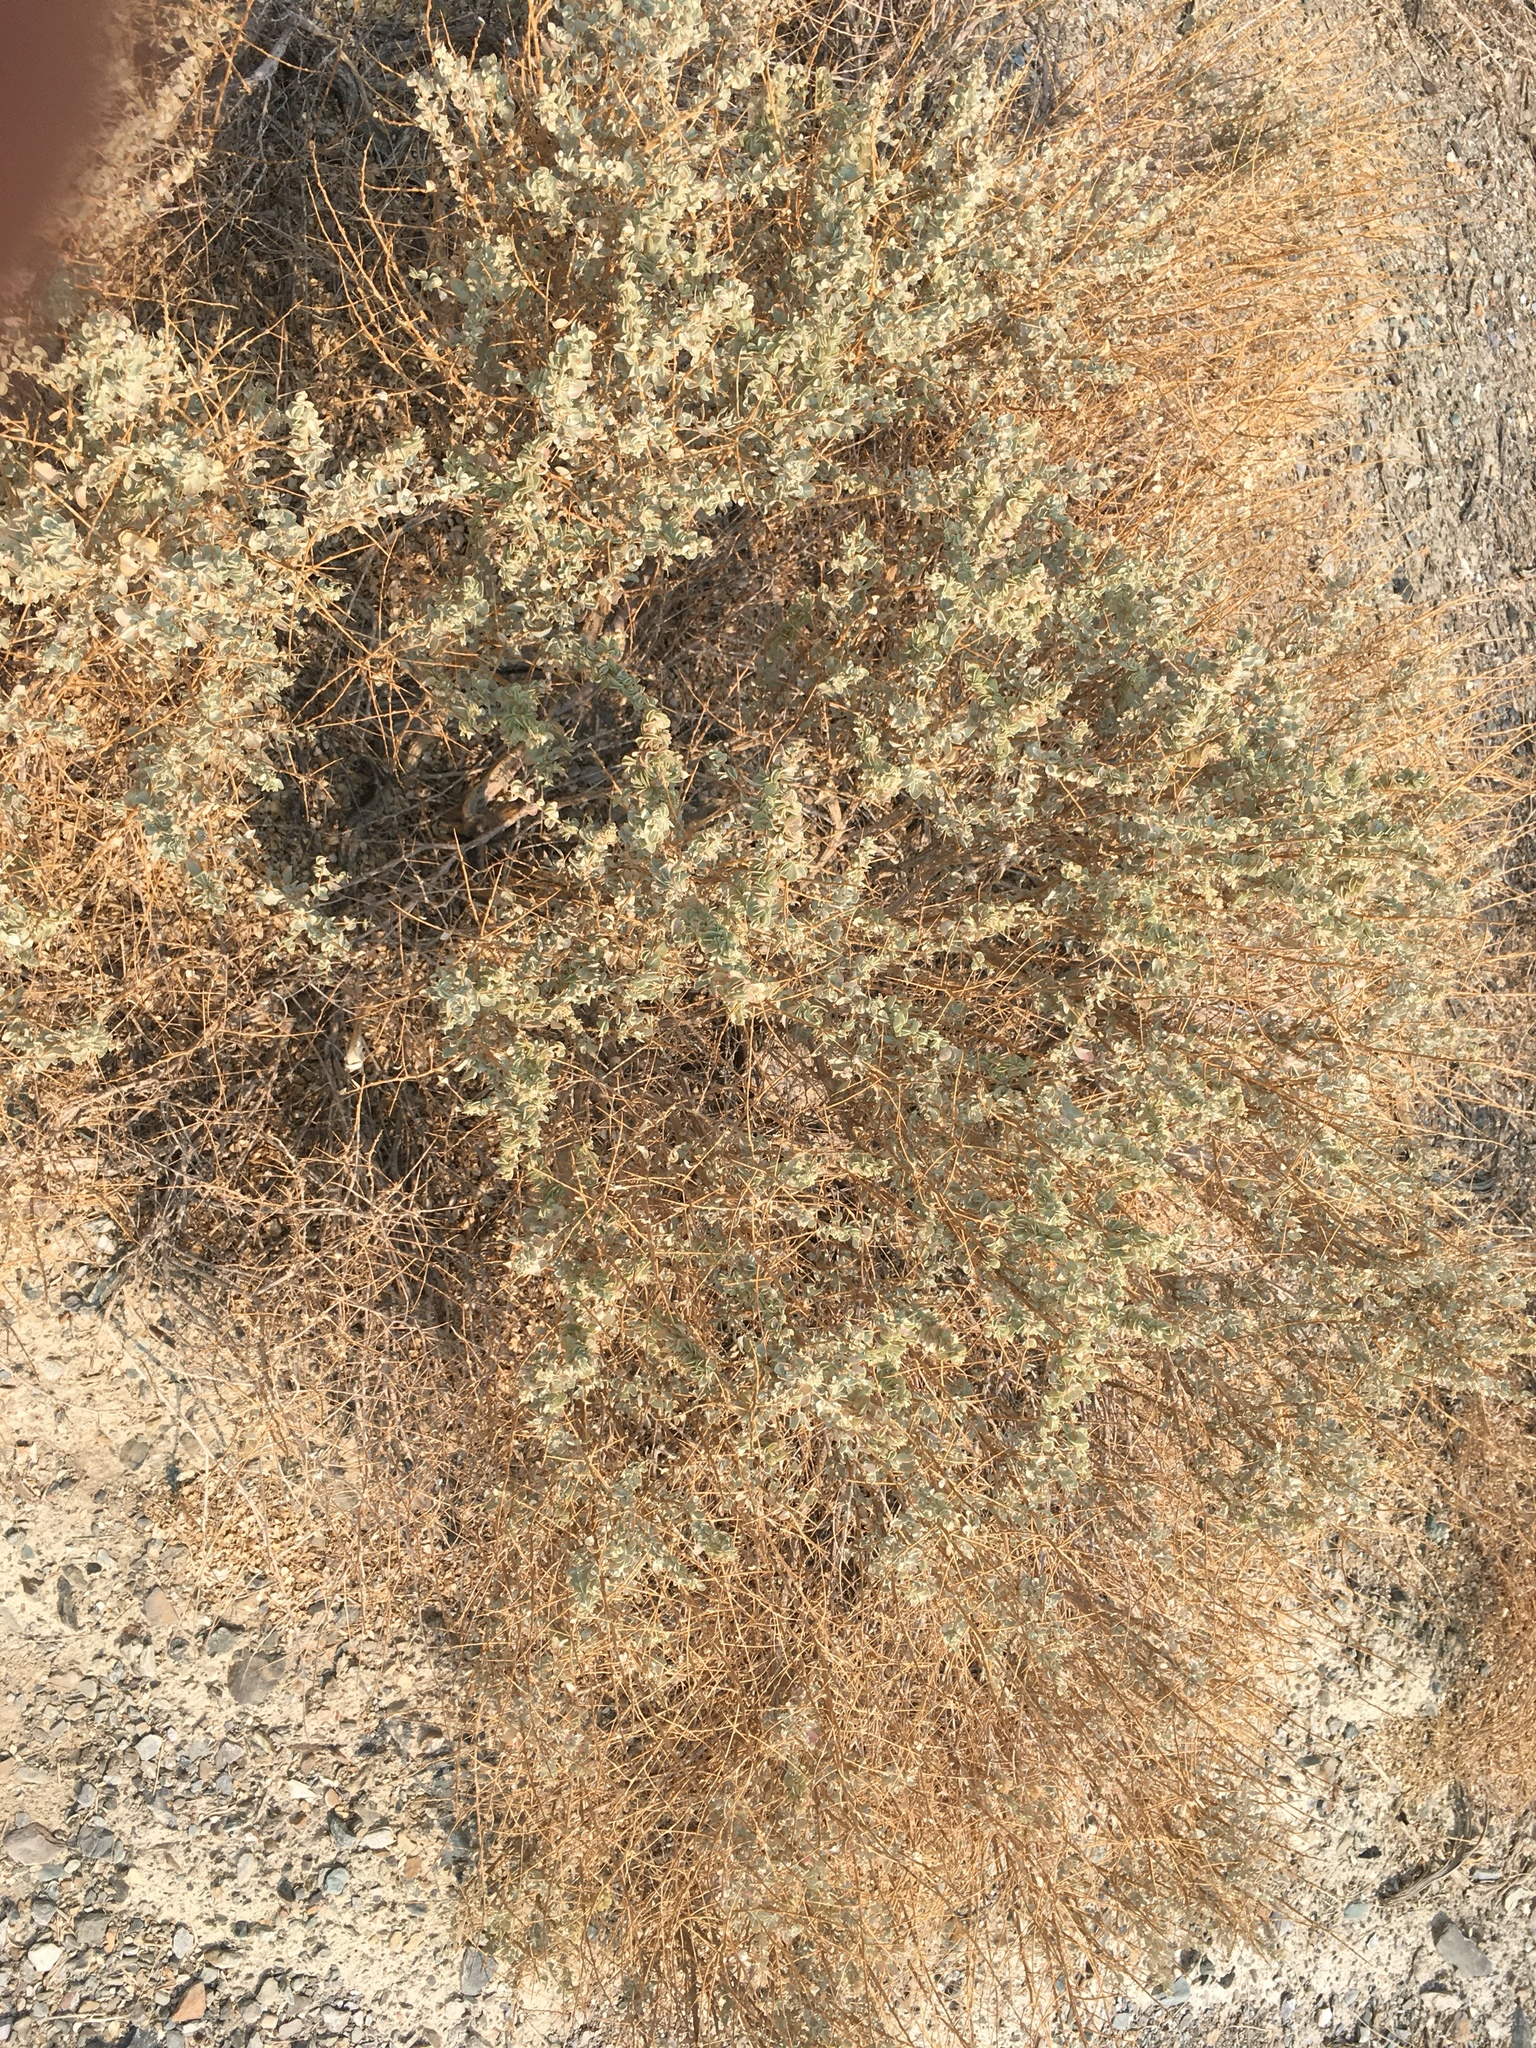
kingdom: Plantae
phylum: Tracheophyta
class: Magnoliopsida
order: Caryophyllales
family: Amaranthaceae
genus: Atriplex
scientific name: Atriplex torreyi
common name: Torrey's saltbush
